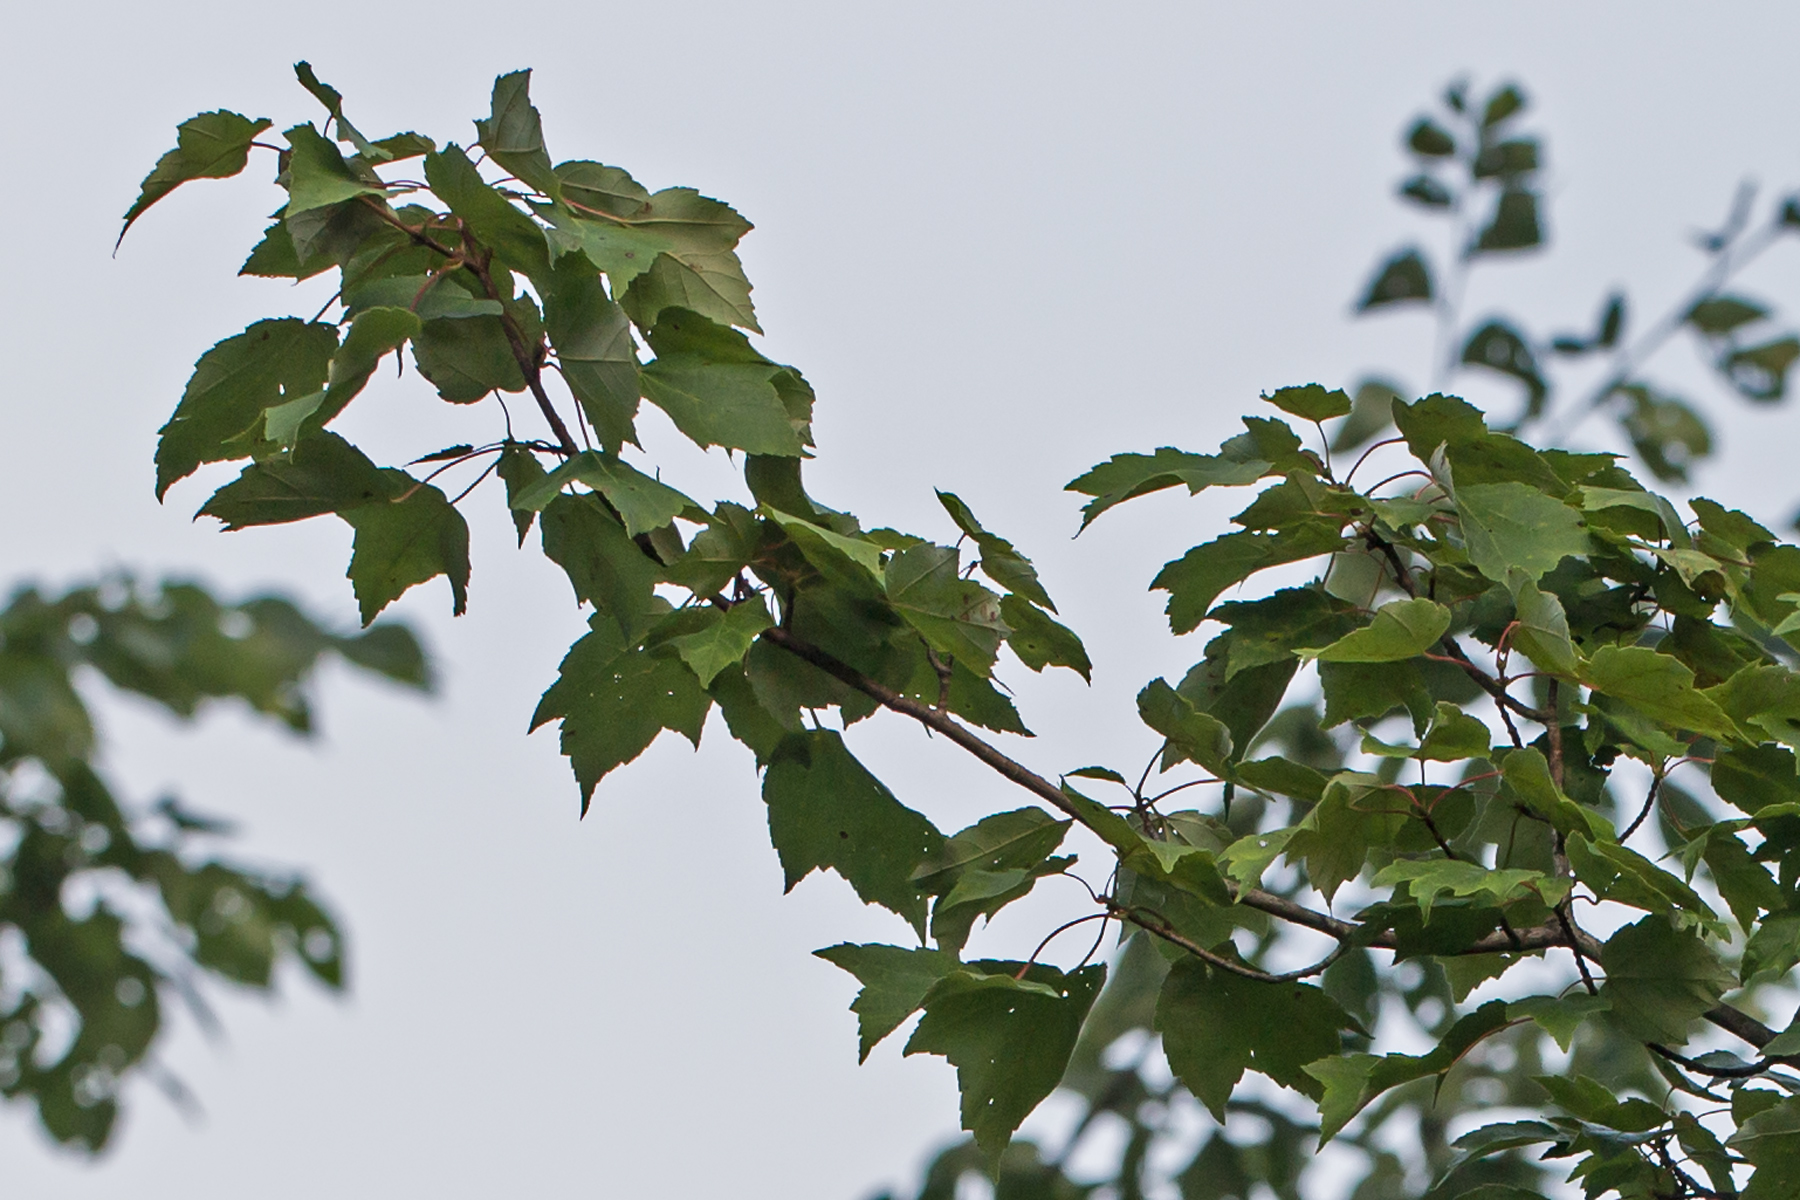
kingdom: Plantae
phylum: Tracheophyta
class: Magnoliopsida
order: Sapindales
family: Sapindaceae
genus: Acer
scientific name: Acer rubrum
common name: Red maple
